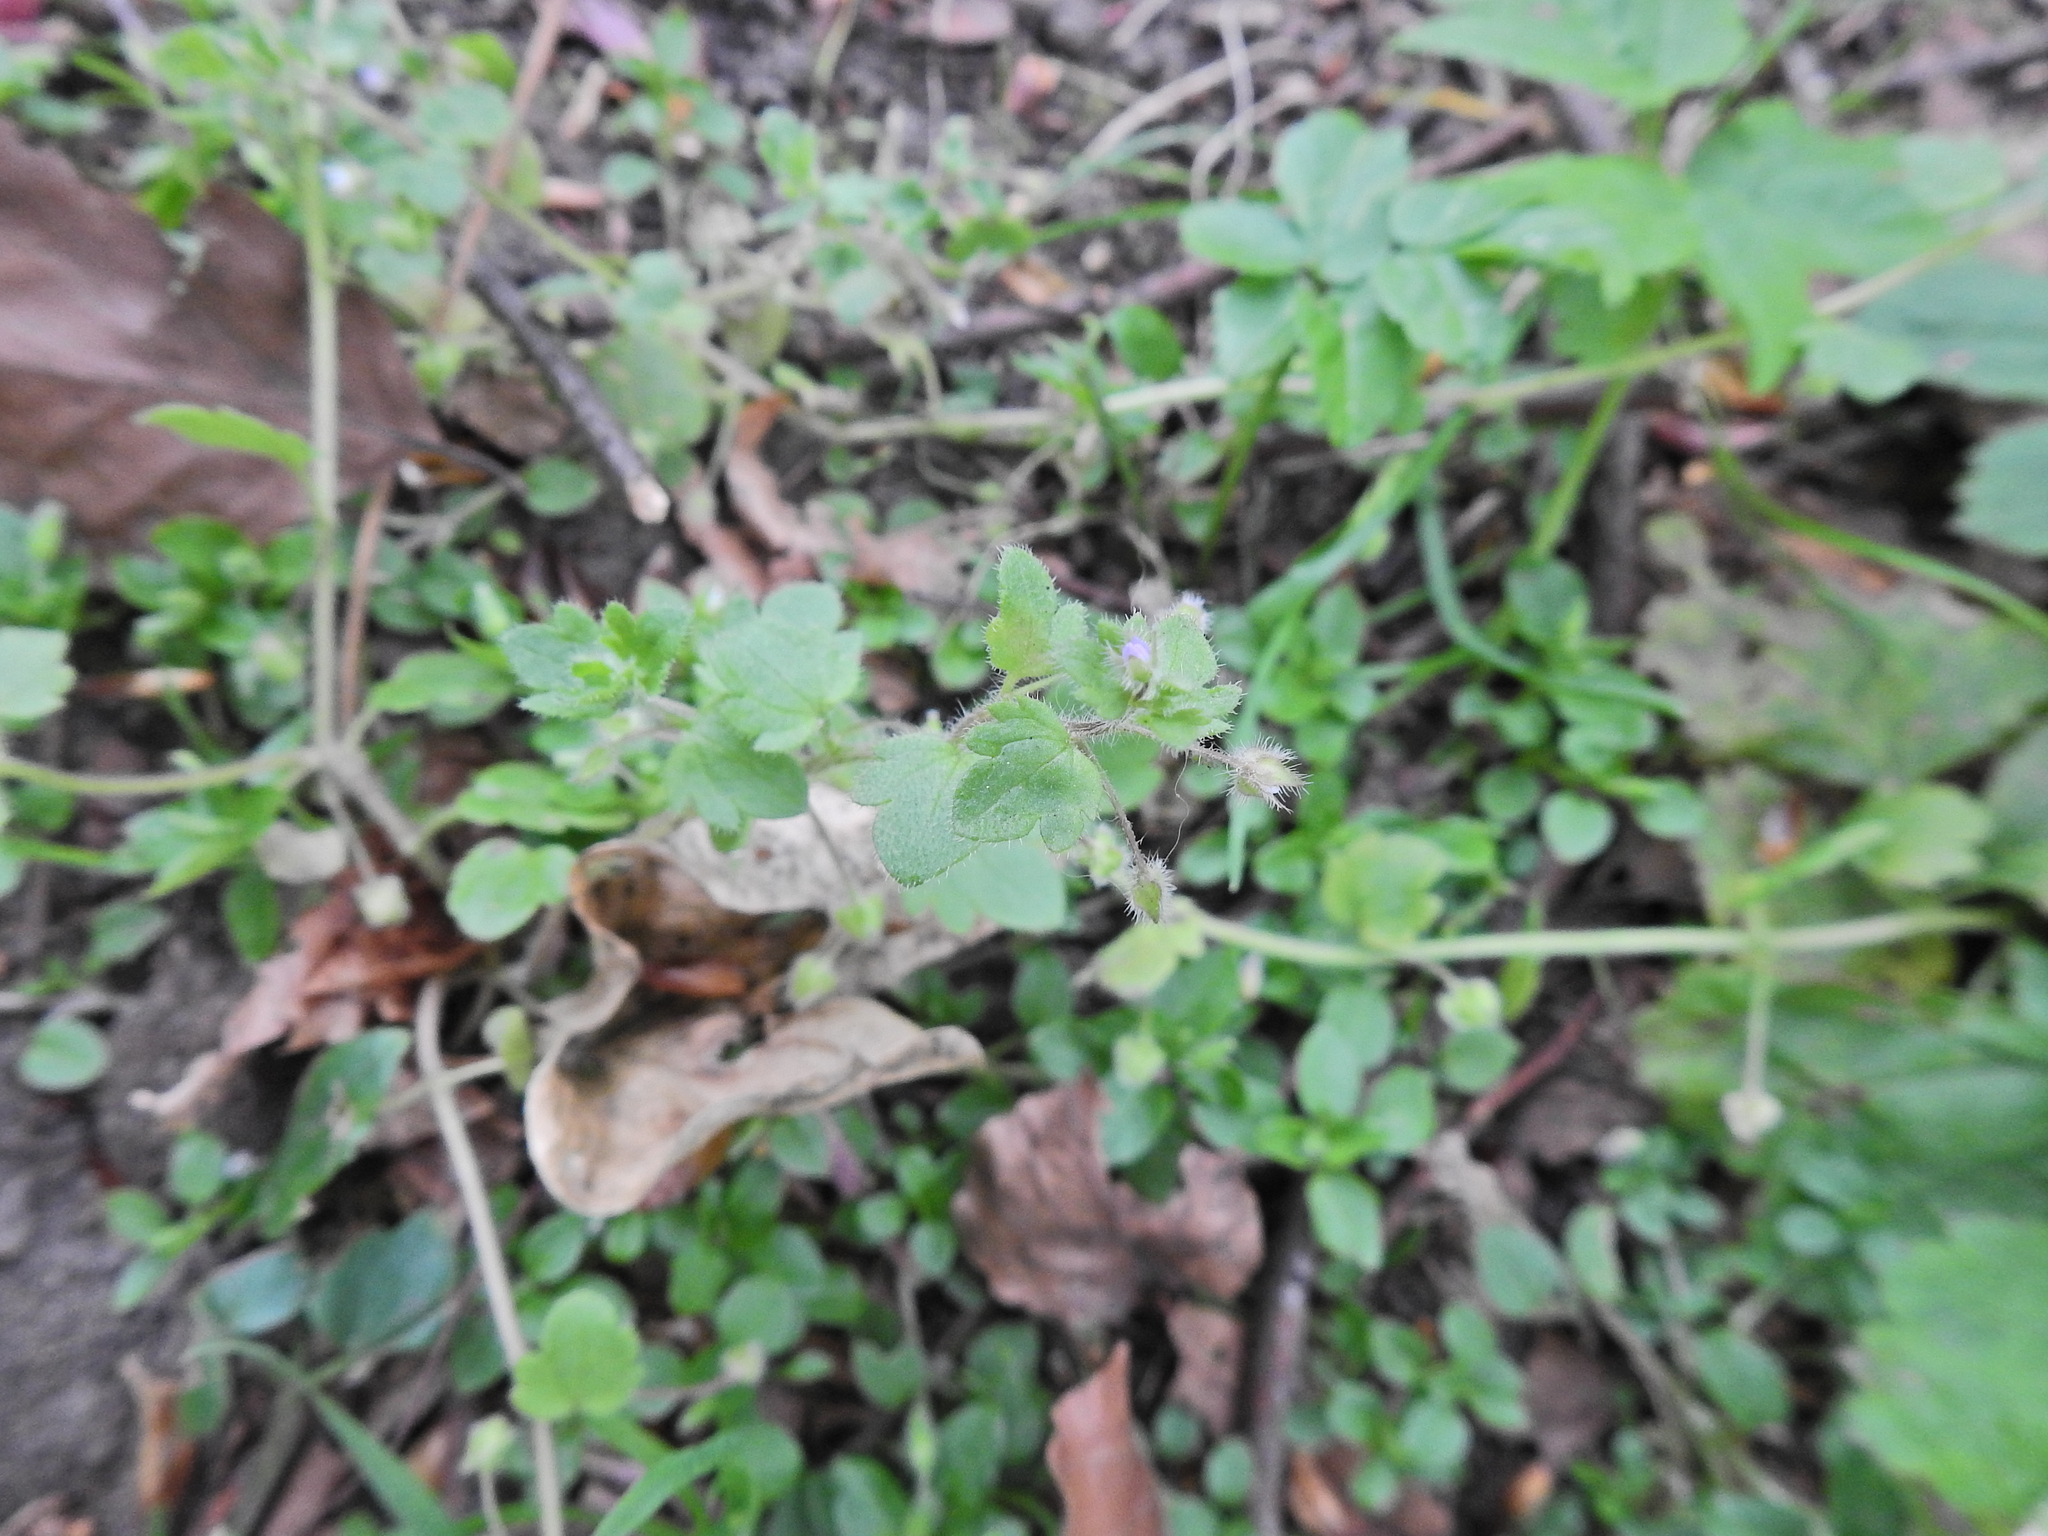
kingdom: Plantae
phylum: Tracheophyta
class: Magnoliopsida
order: Lamiales
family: Plantaginaceae
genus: Veronica
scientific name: Veronica sublobata
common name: False ivy-leaved speedwell
